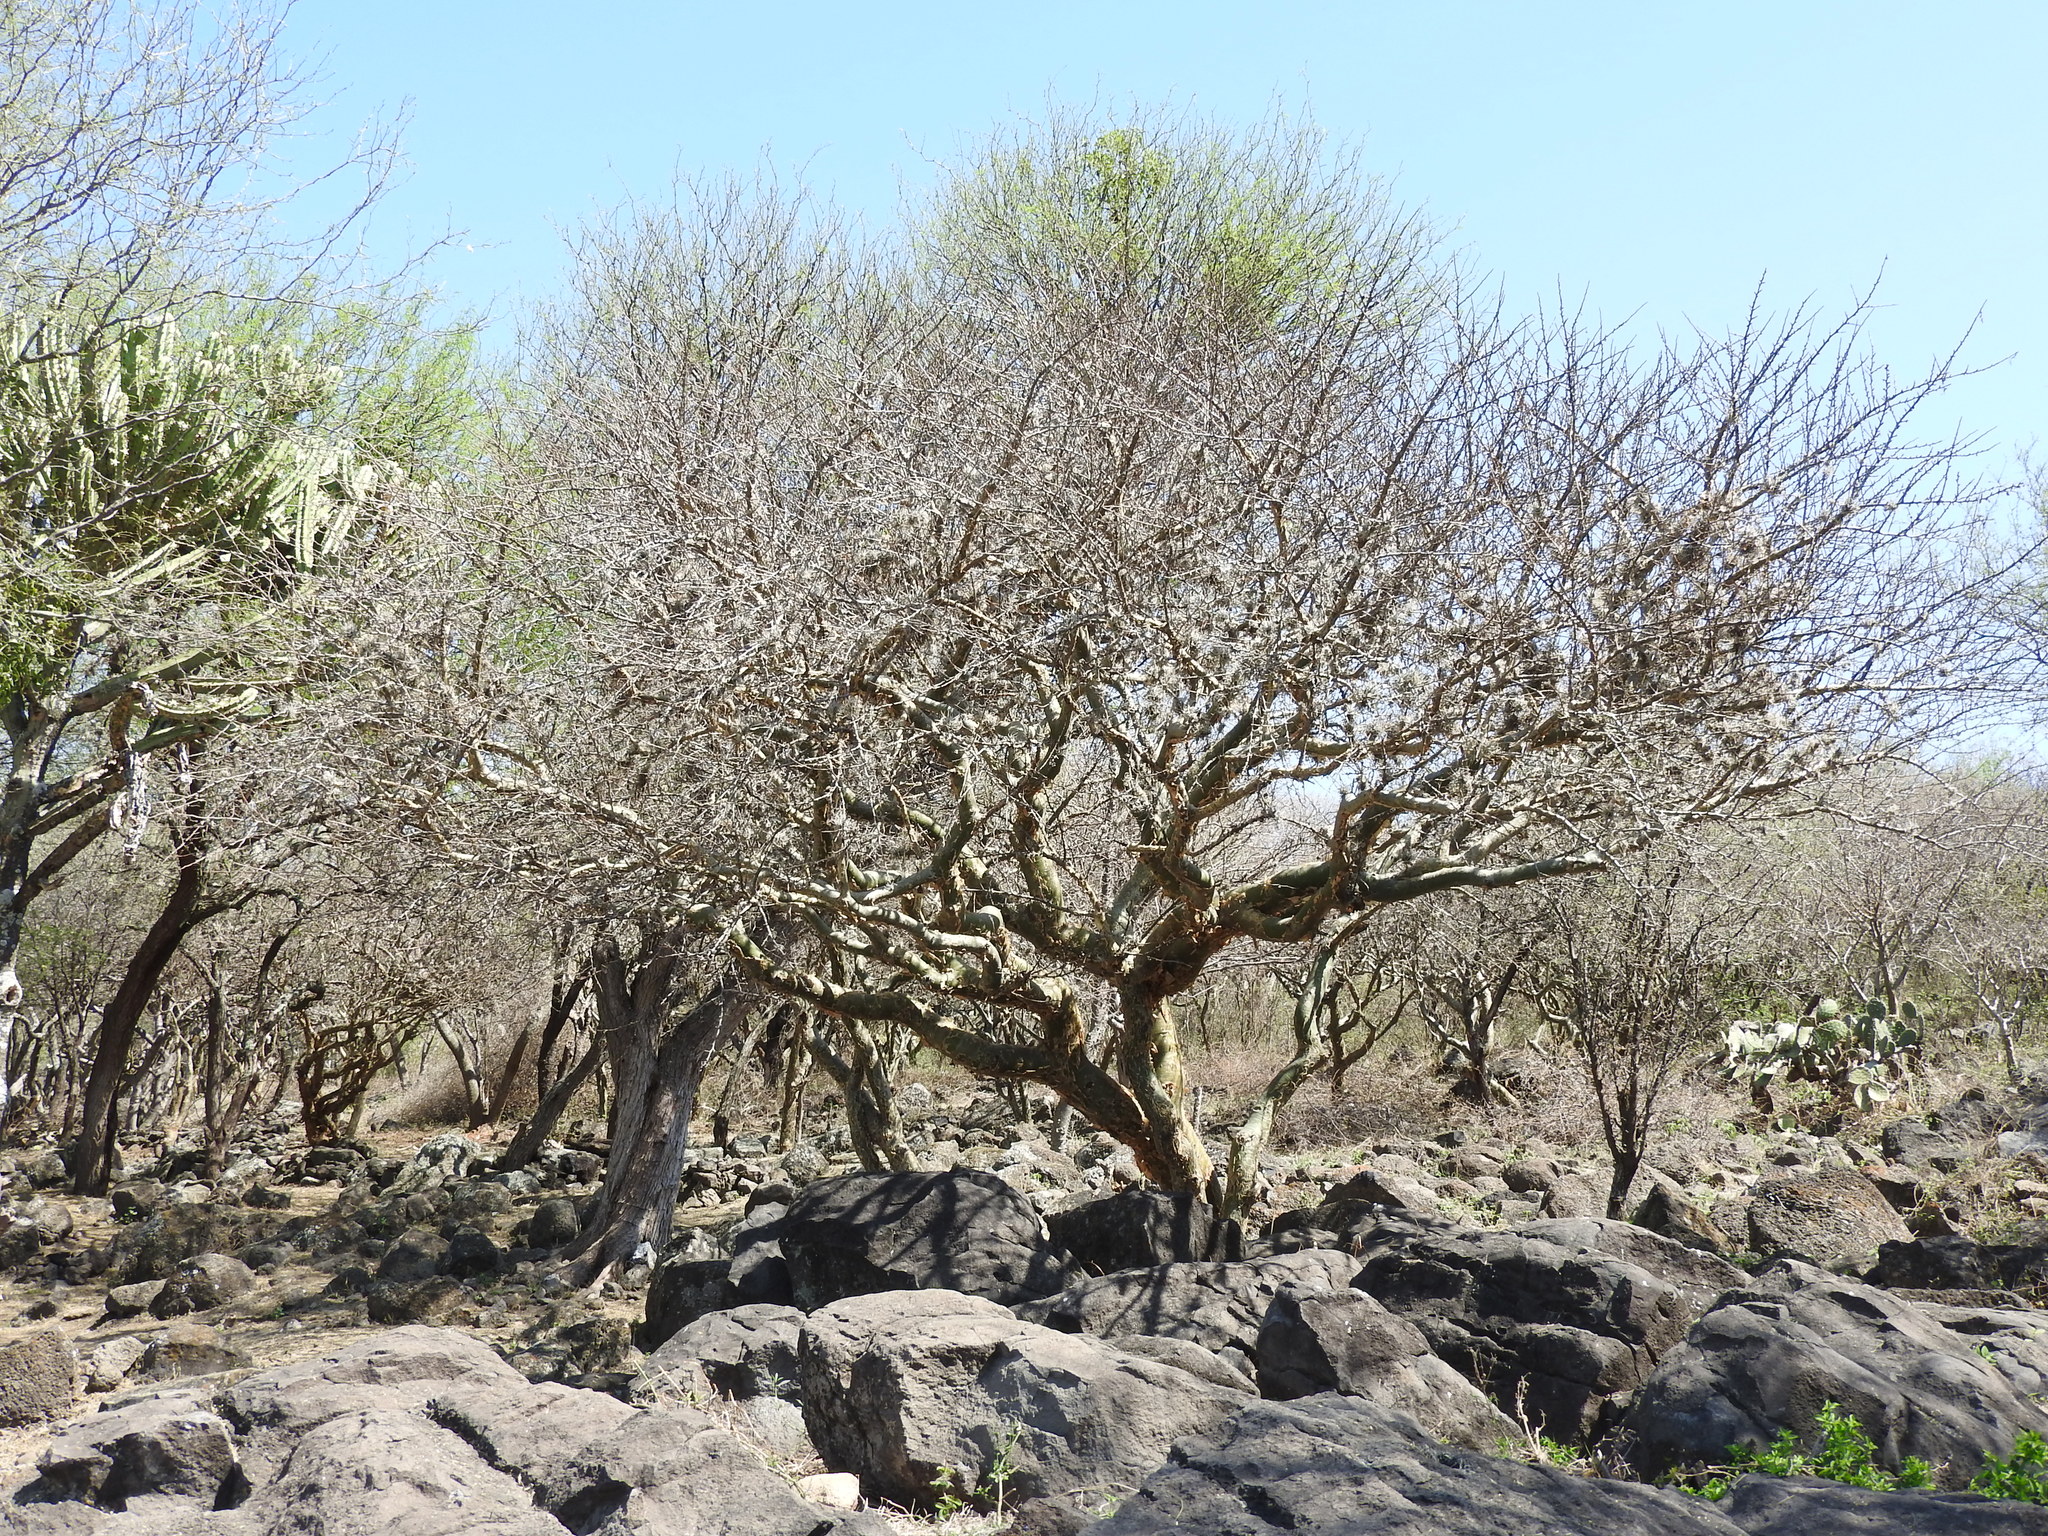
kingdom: Plantae
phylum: Tracheophyta
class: Magnoliopsida
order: Sapindales
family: Burseraceae
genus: Bursera
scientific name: Bursera fagaroides
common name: Elephant tree
